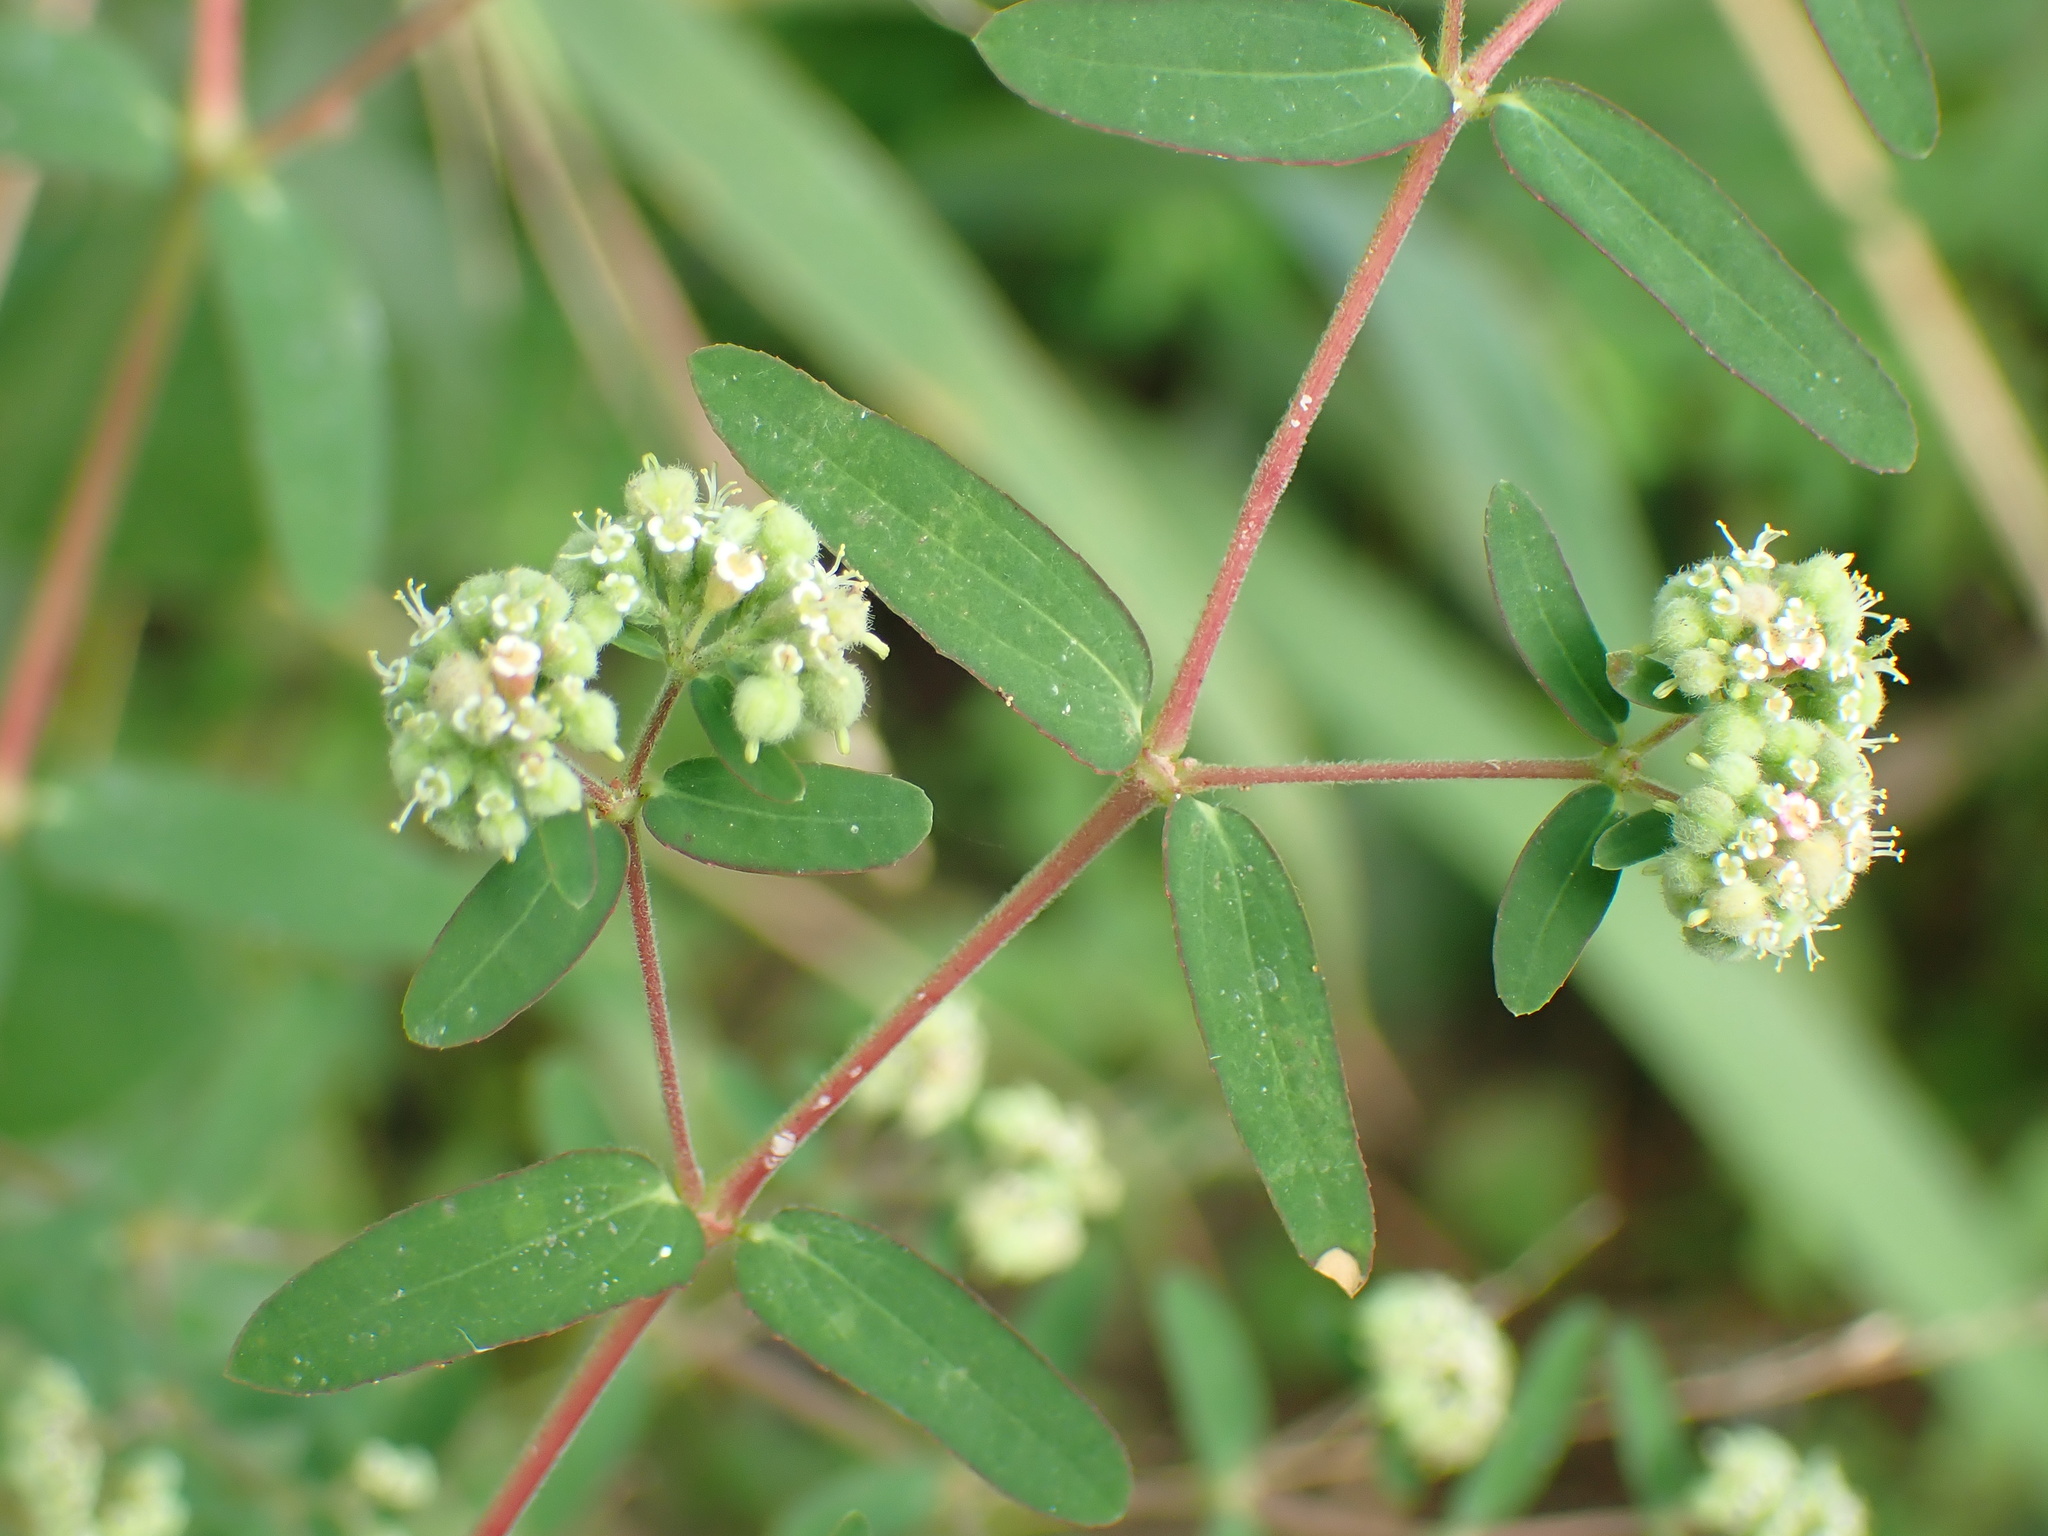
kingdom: Plantae
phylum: Tracheophyta
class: Magnoliopsida
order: Malpighiales
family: Euphorbiaceae
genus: Euphorbia
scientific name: Euphorbia lasiocarpa
